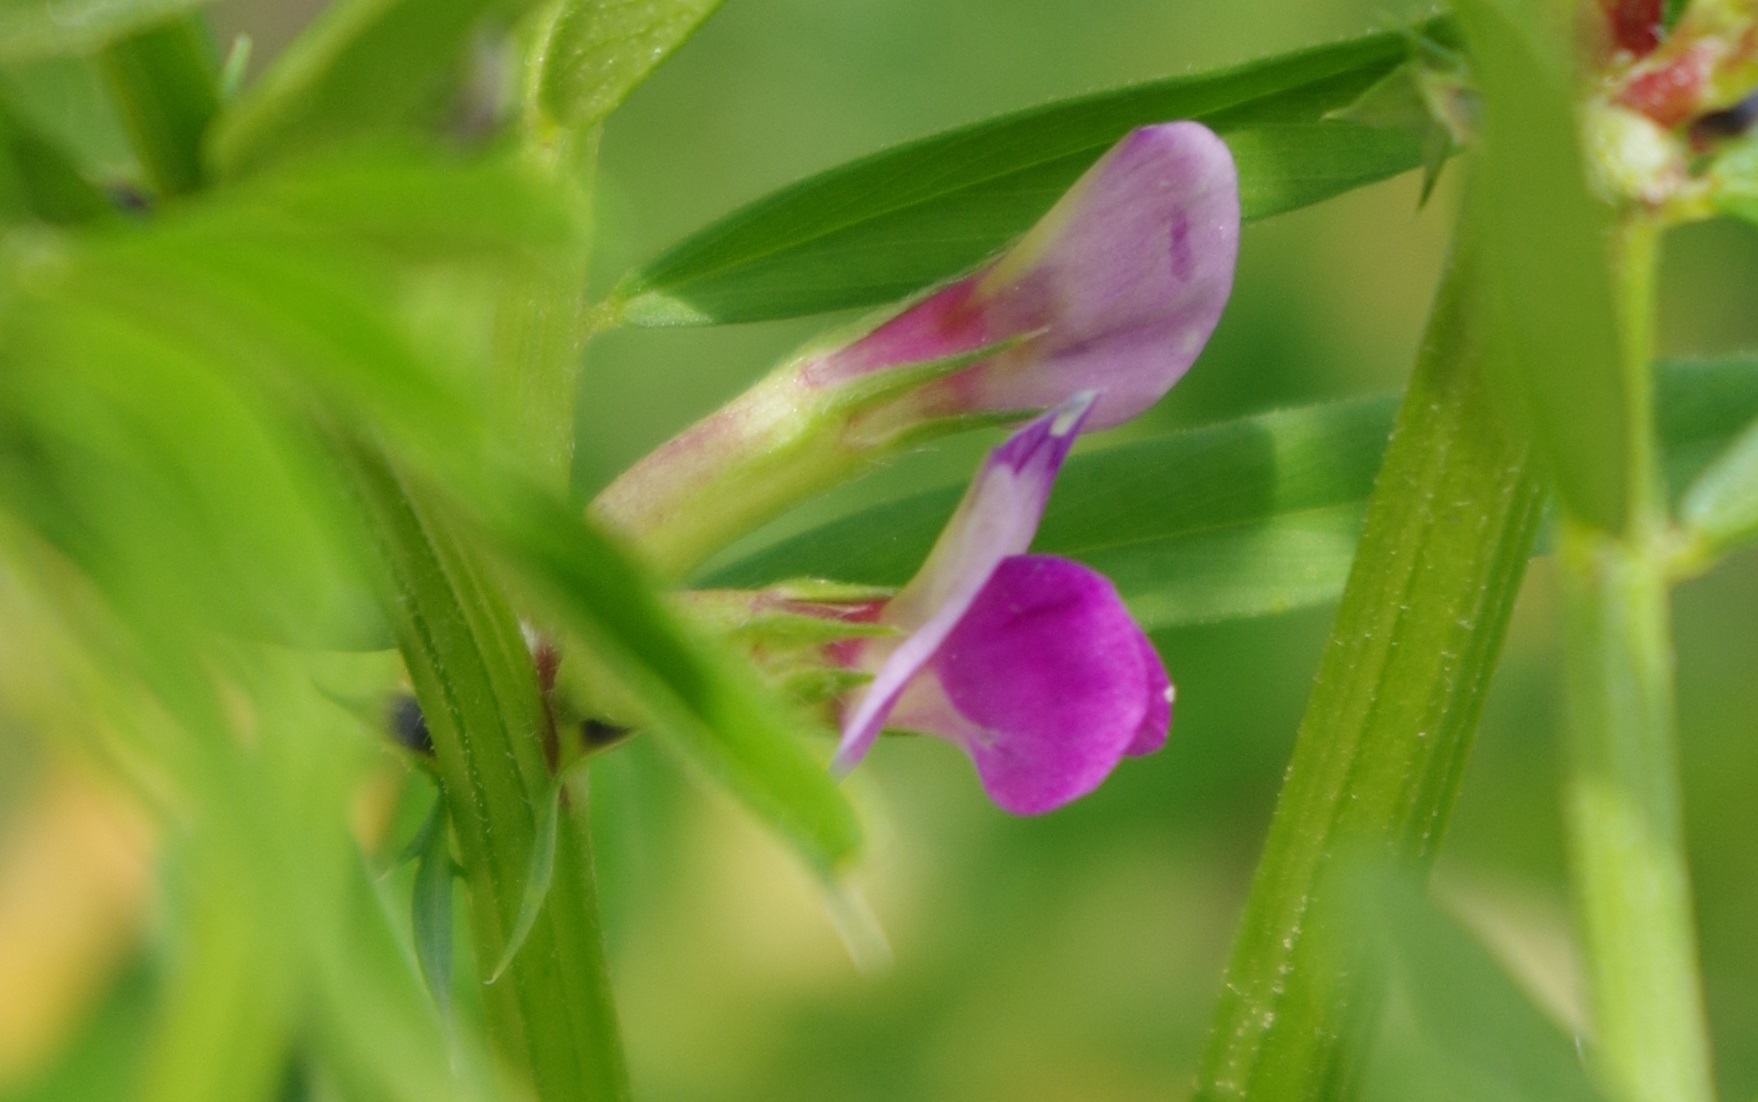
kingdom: Plantae
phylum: Tracheophyta
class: Magnoliopsida
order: Fabales
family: Fabaceae
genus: Vicia
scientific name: Vicia sativa
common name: Garden vetch
